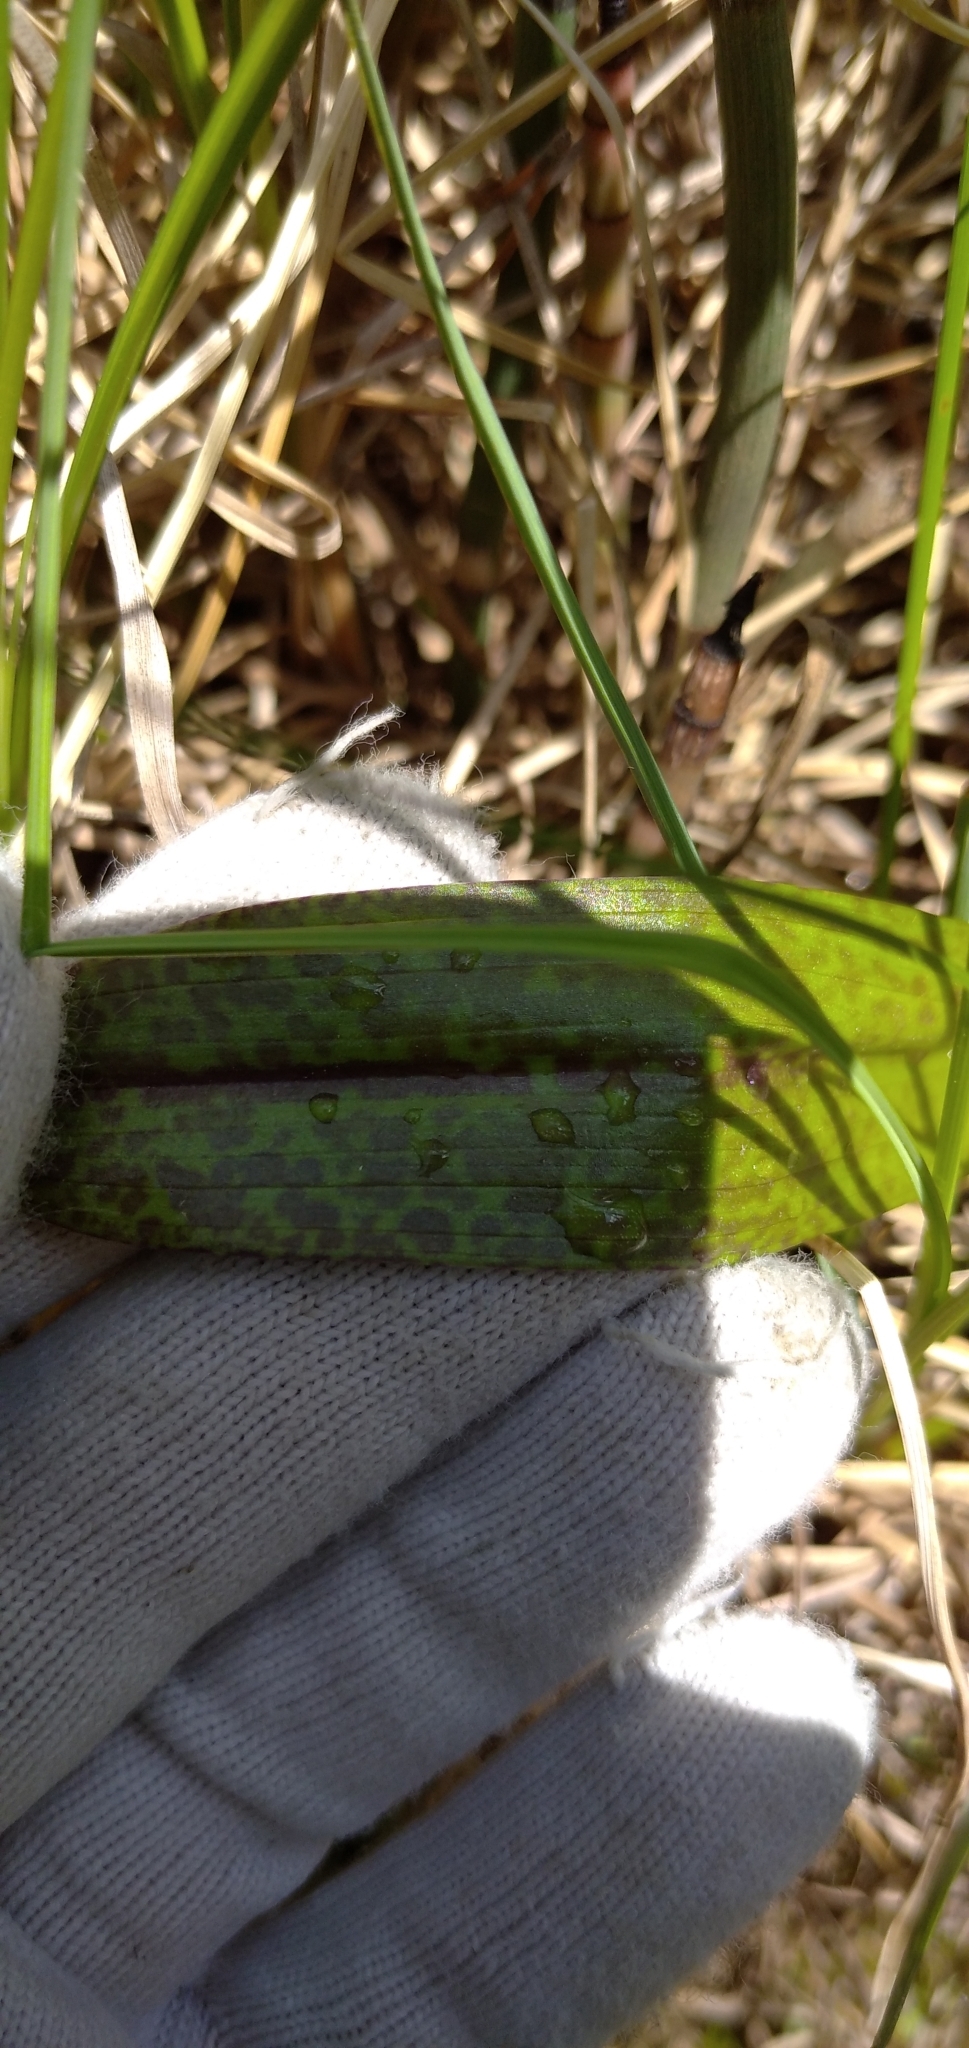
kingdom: Plantae
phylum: Tracheophyta
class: Liliopsida
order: Asparagales
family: Orchidaceae
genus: Dactylorhiza
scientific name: Dactylorhiza incarnata
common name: Early marsh-orchid
